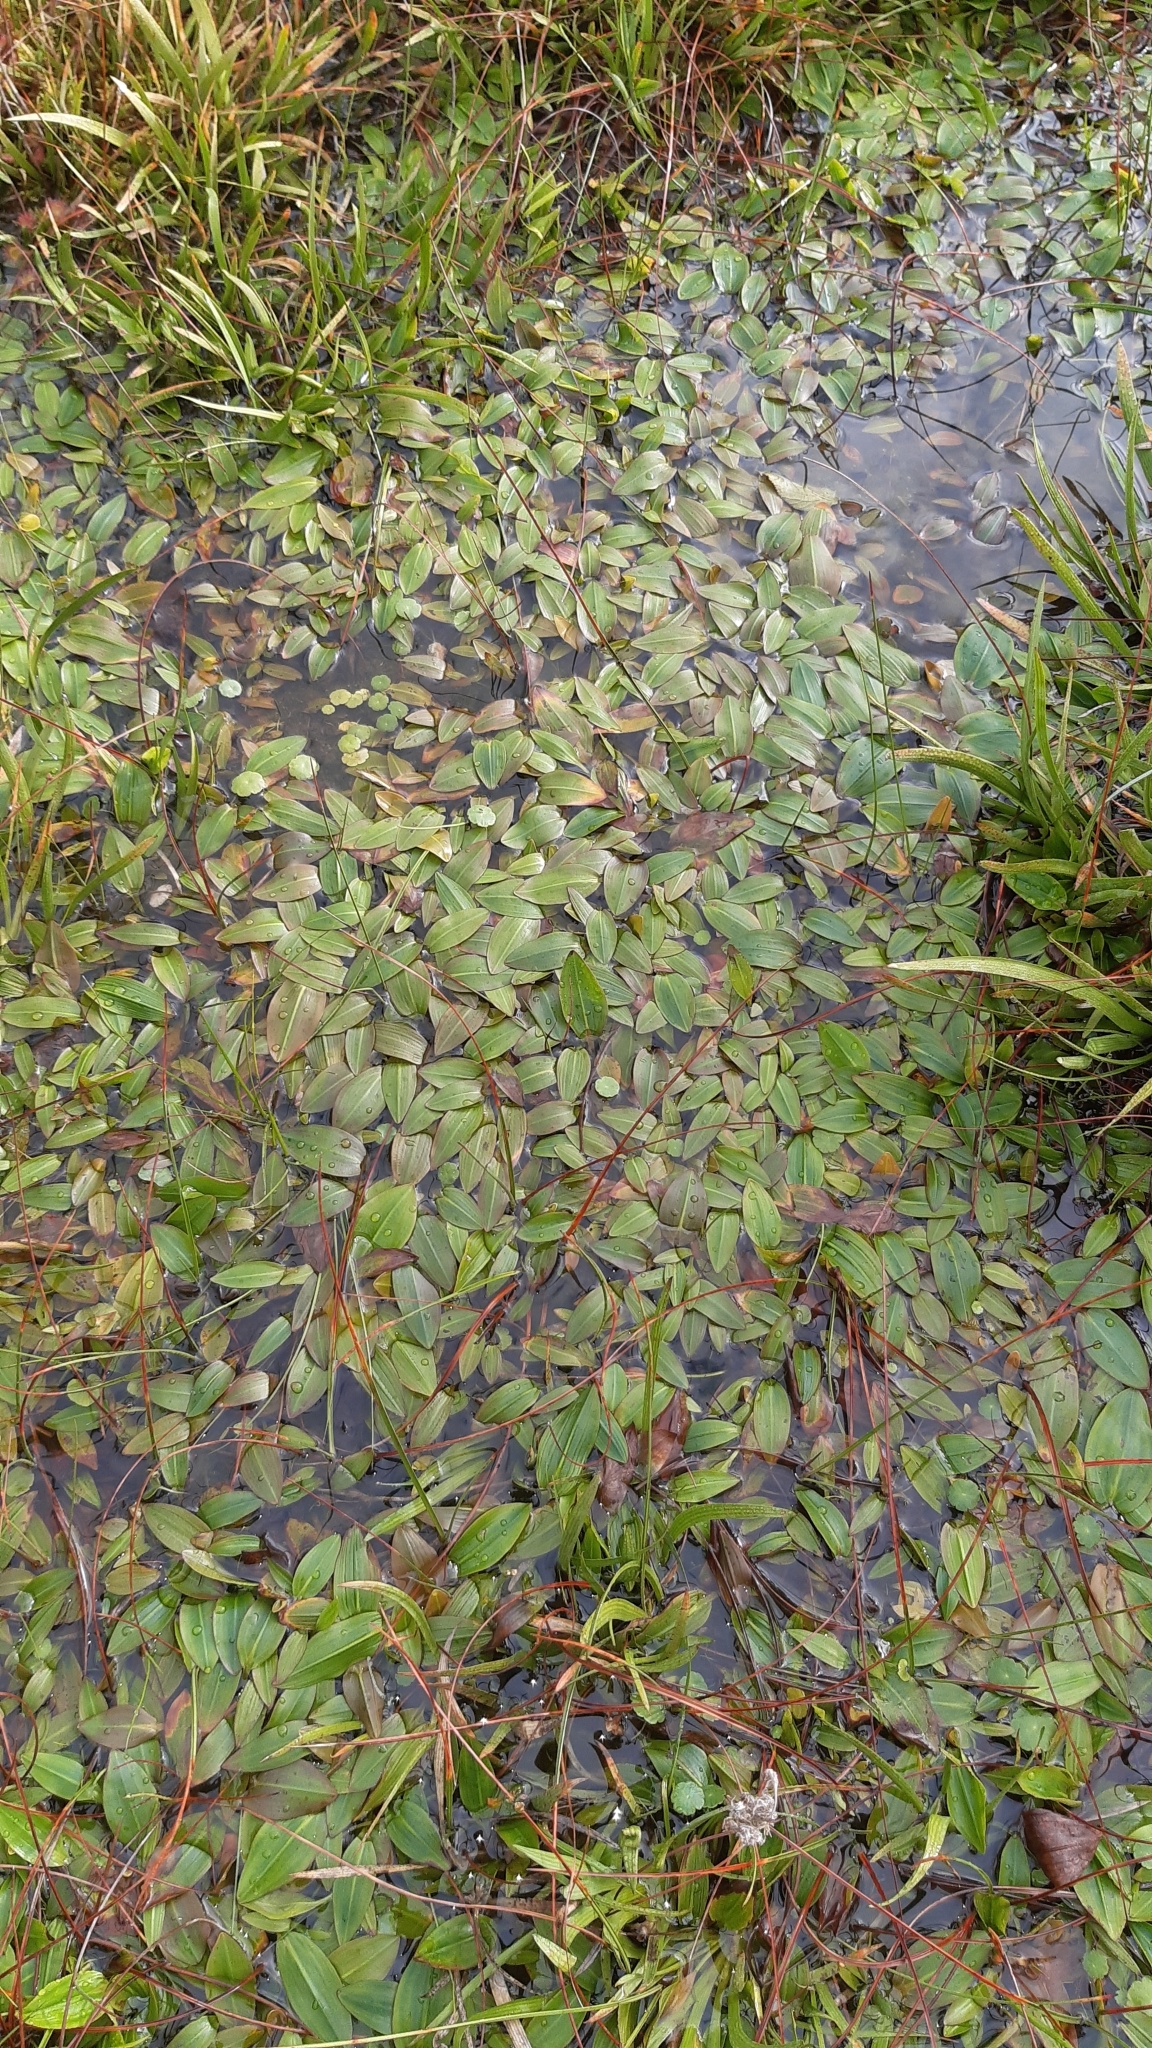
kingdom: Plantae
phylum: Tracheophyta
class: Liliopsida
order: Alismatales
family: Potamogetonaceae
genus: Potamogeton
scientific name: Potamogeton natans
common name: Broad-leaved pondweed
